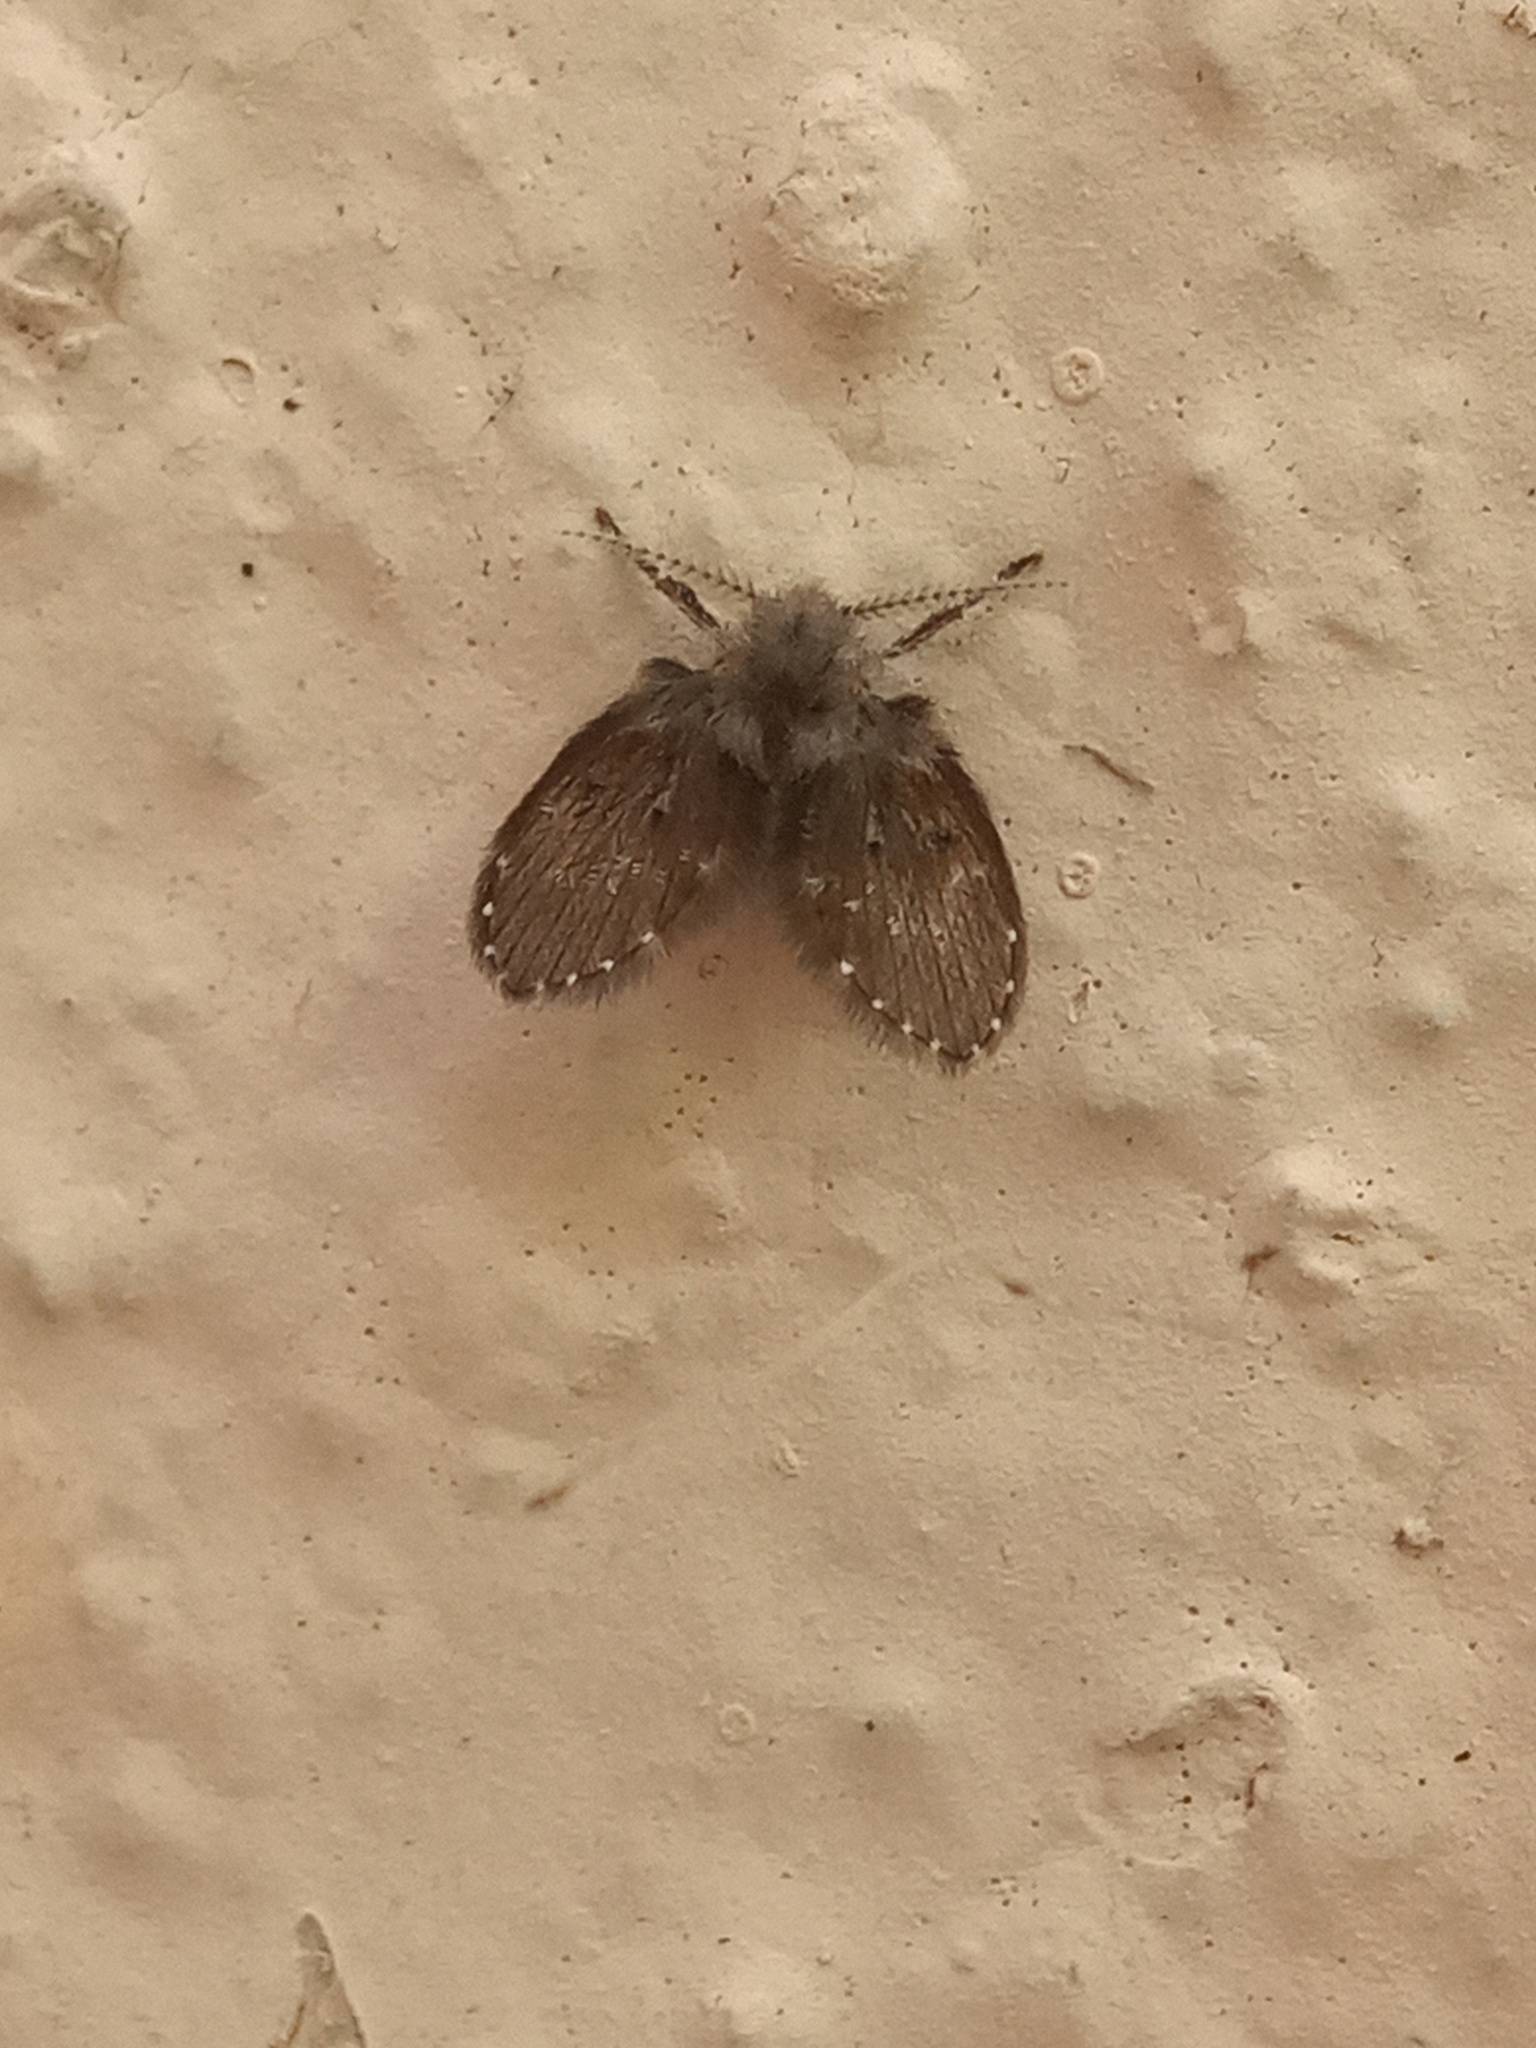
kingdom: Animalia
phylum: Arthropoda
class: Insecta
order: Diptera
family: Psychodidae
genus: Clogmia
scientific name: Clogmia albipunctatus
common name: White-spotted moth fly
